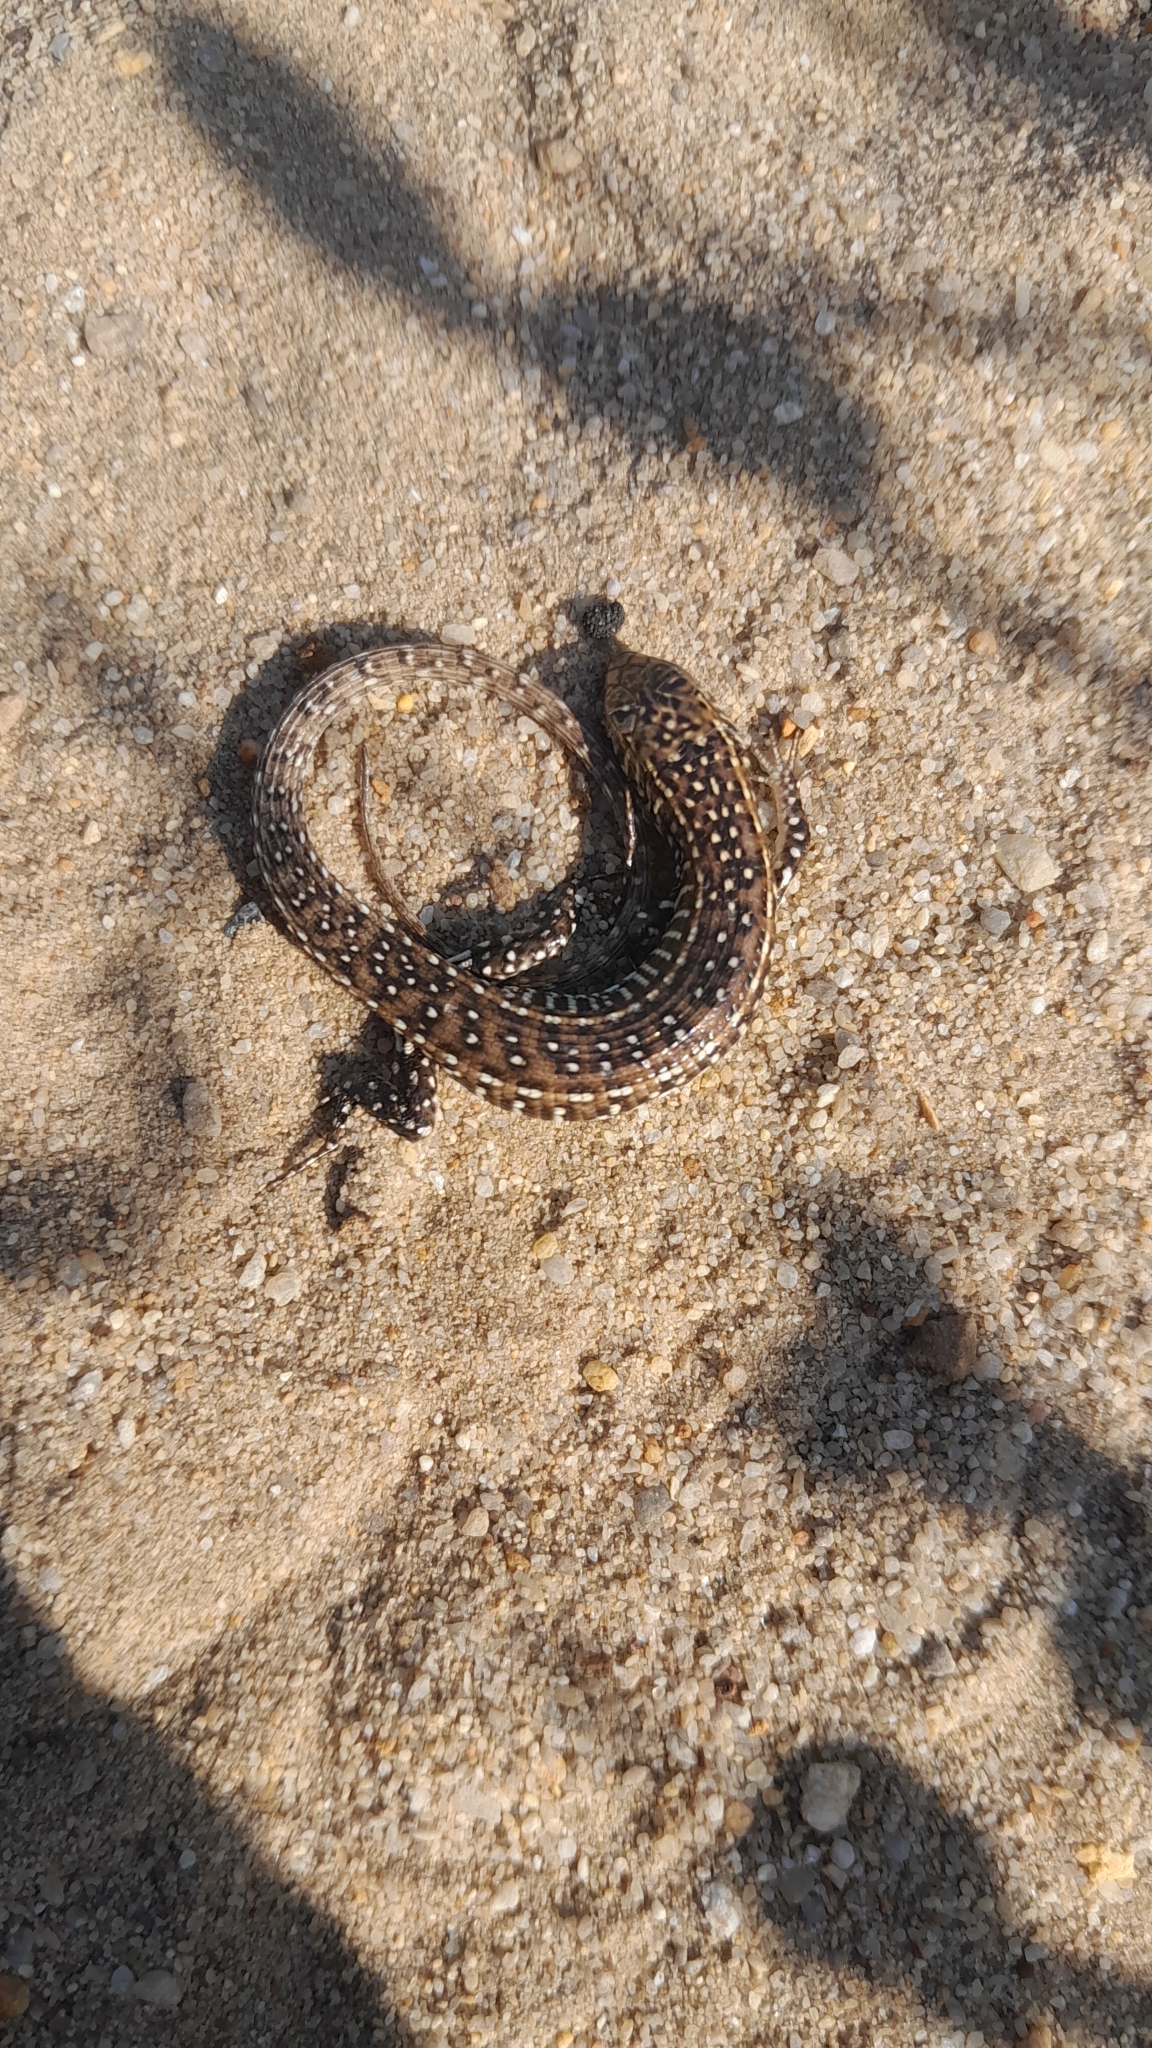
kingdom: Animalia
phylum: Chordata
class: Squamata
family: Gerrhosauridae
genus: Gerrhosaurus
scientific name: Gerrhosaurus flavigularis
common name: Yellow-throated plated lizard
